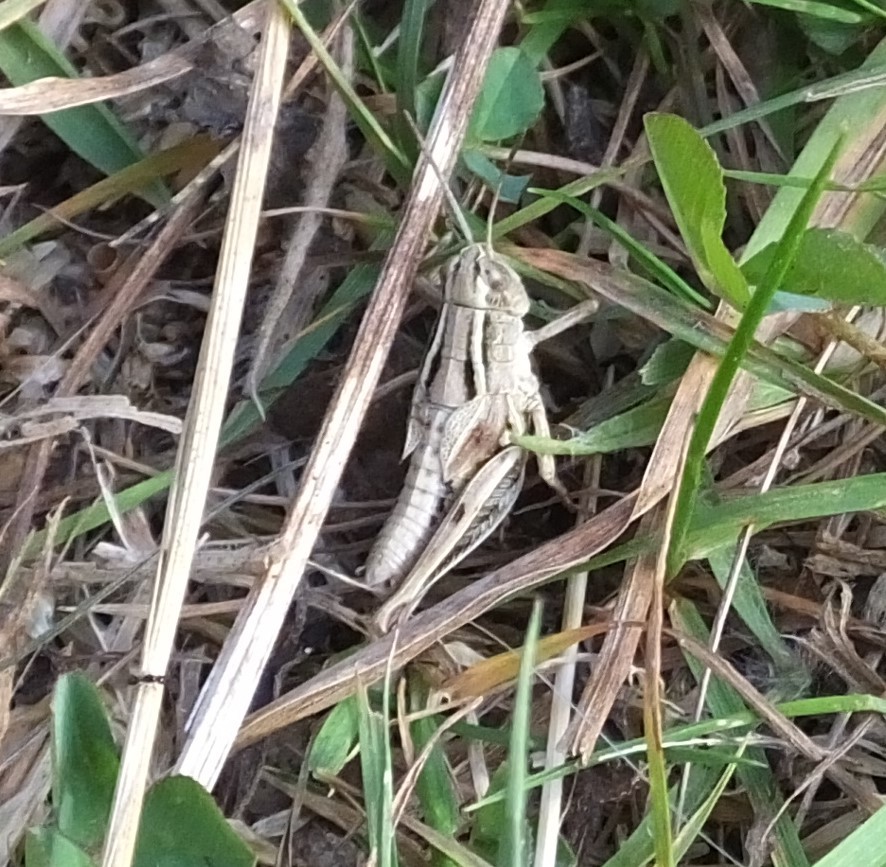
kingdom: Animalia
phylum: Arthropoda
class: Insecta
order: Orthoptera
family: Acrididae
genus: Phaulacridium
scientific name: Phaulacridium marginale
